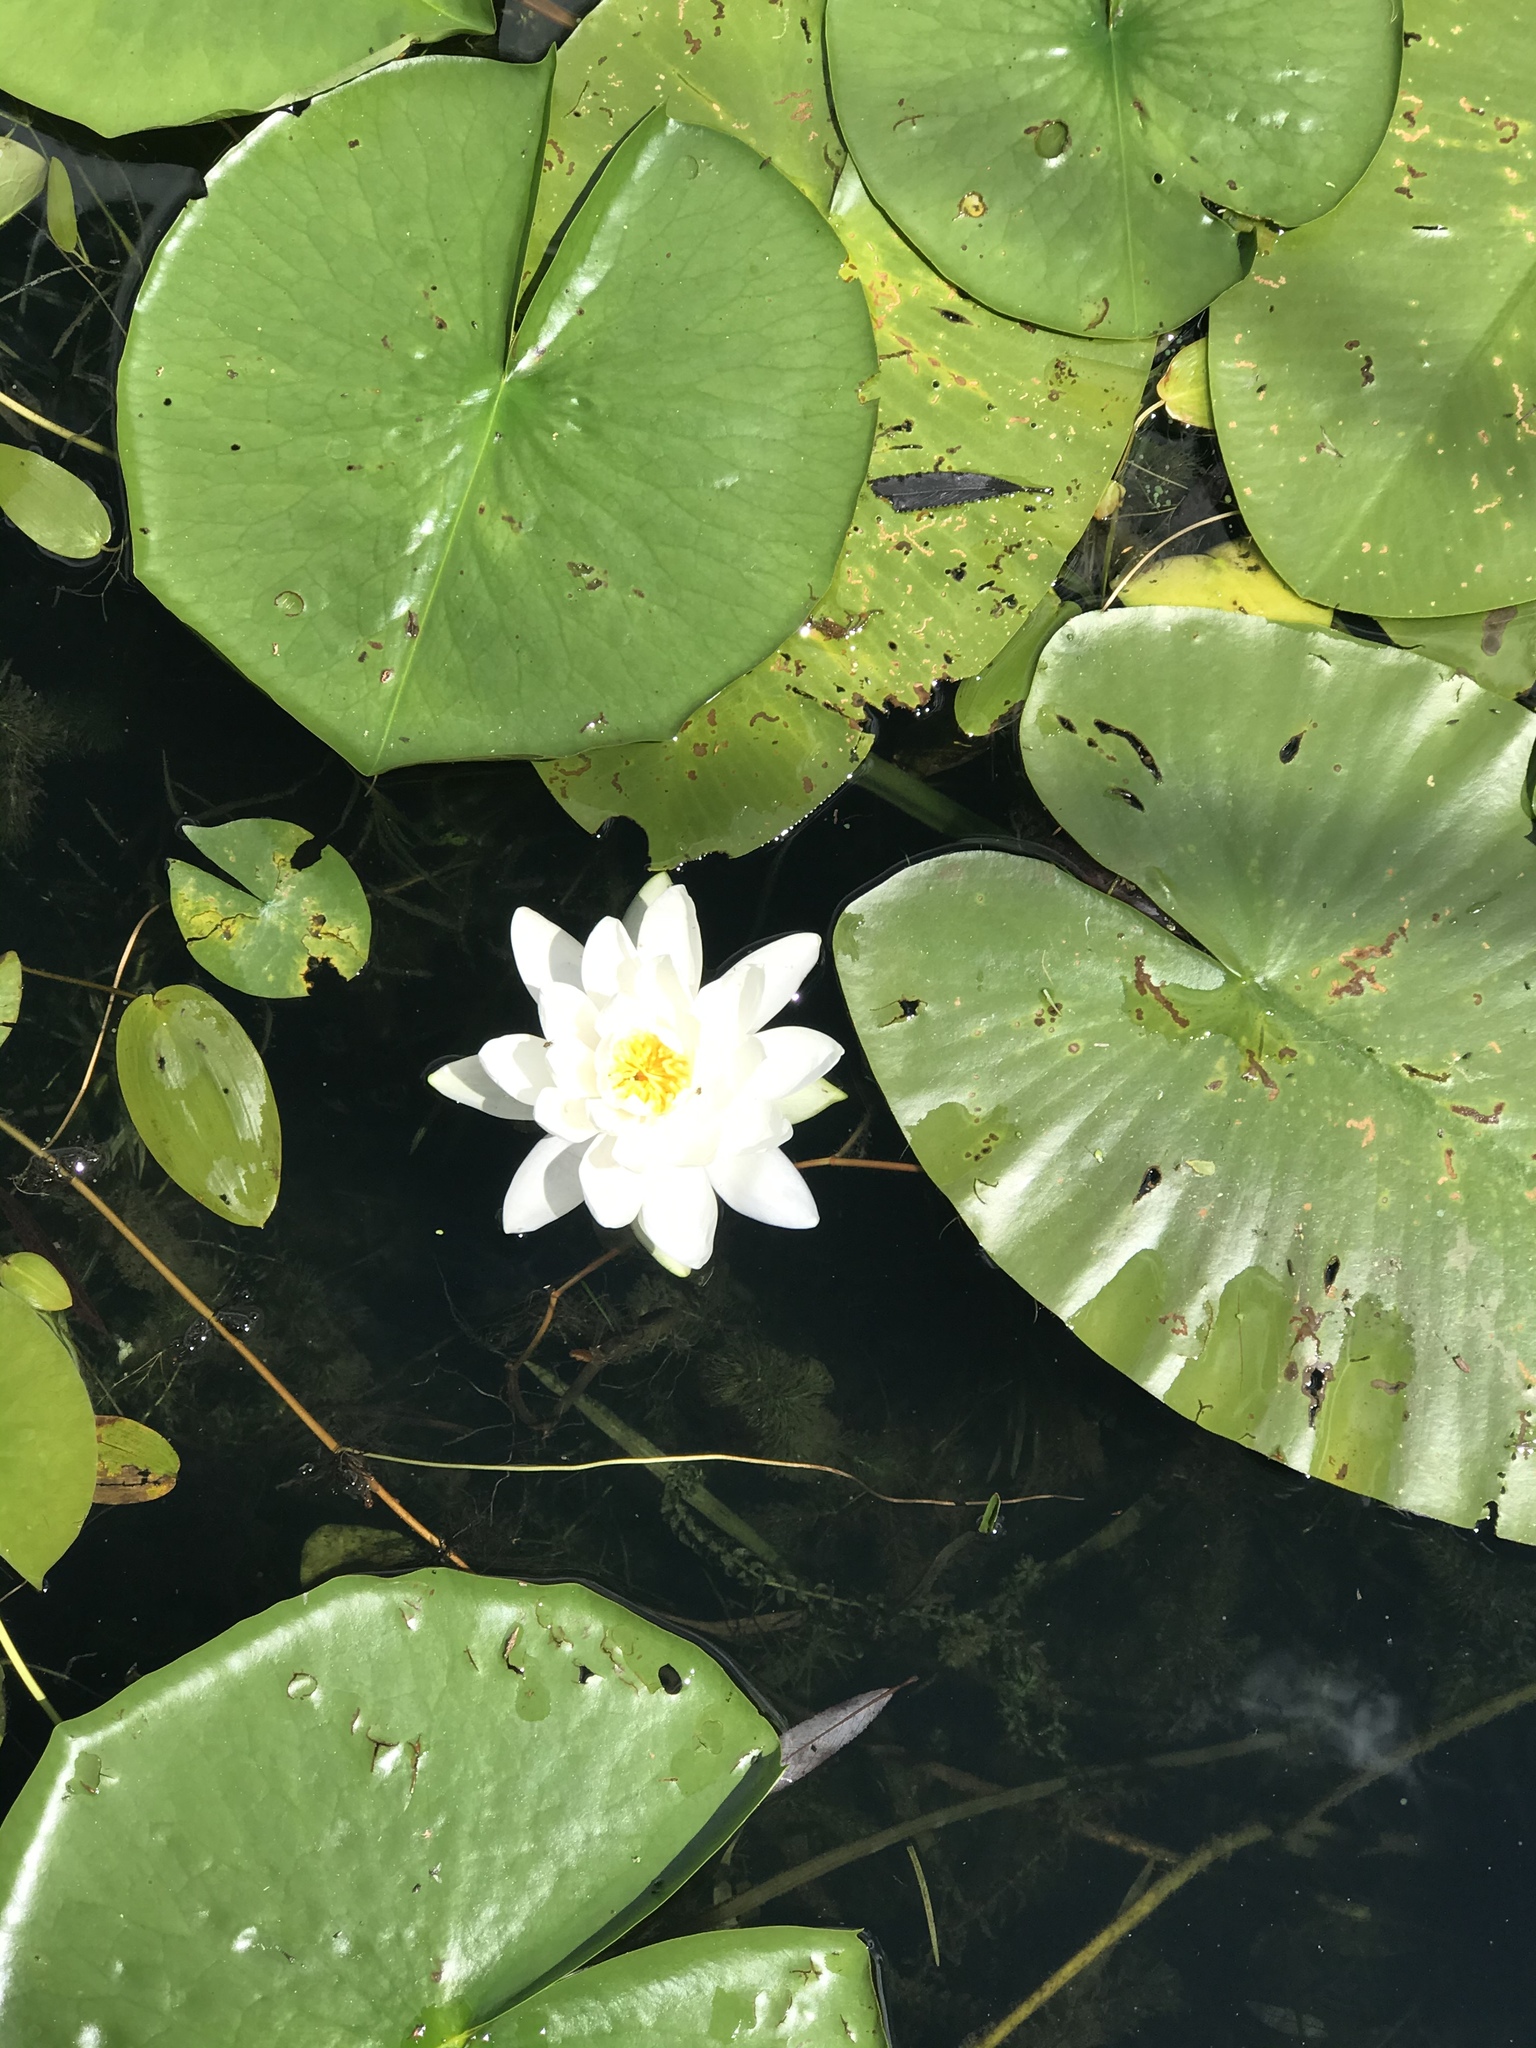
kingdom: Plantae
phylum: Tracheophyta
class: Magnoliopsida
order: Nymphaeales
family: Nymphaeaceae
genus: Nymphaea
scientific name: Nymphaea odorata
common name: Fragrant water-lily
